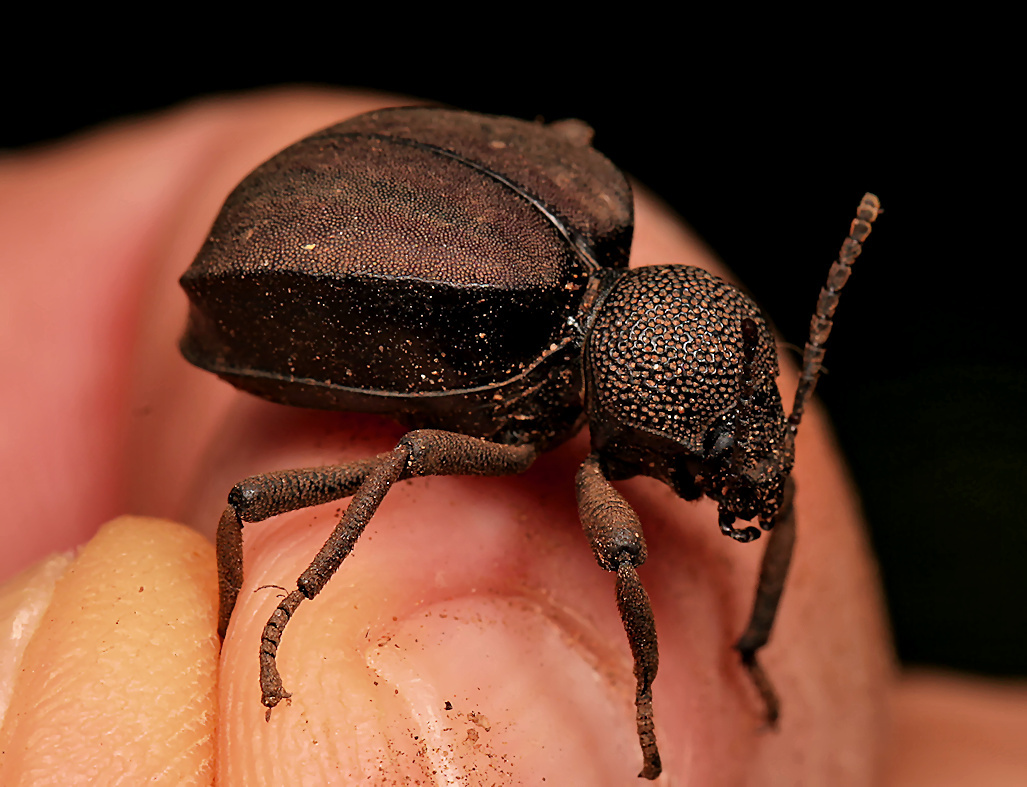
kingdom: Animalia
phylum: Arthropoda
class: Insecta
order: Coleoptera
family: Tenebrionidae
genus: Distretus
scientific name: Distretus
